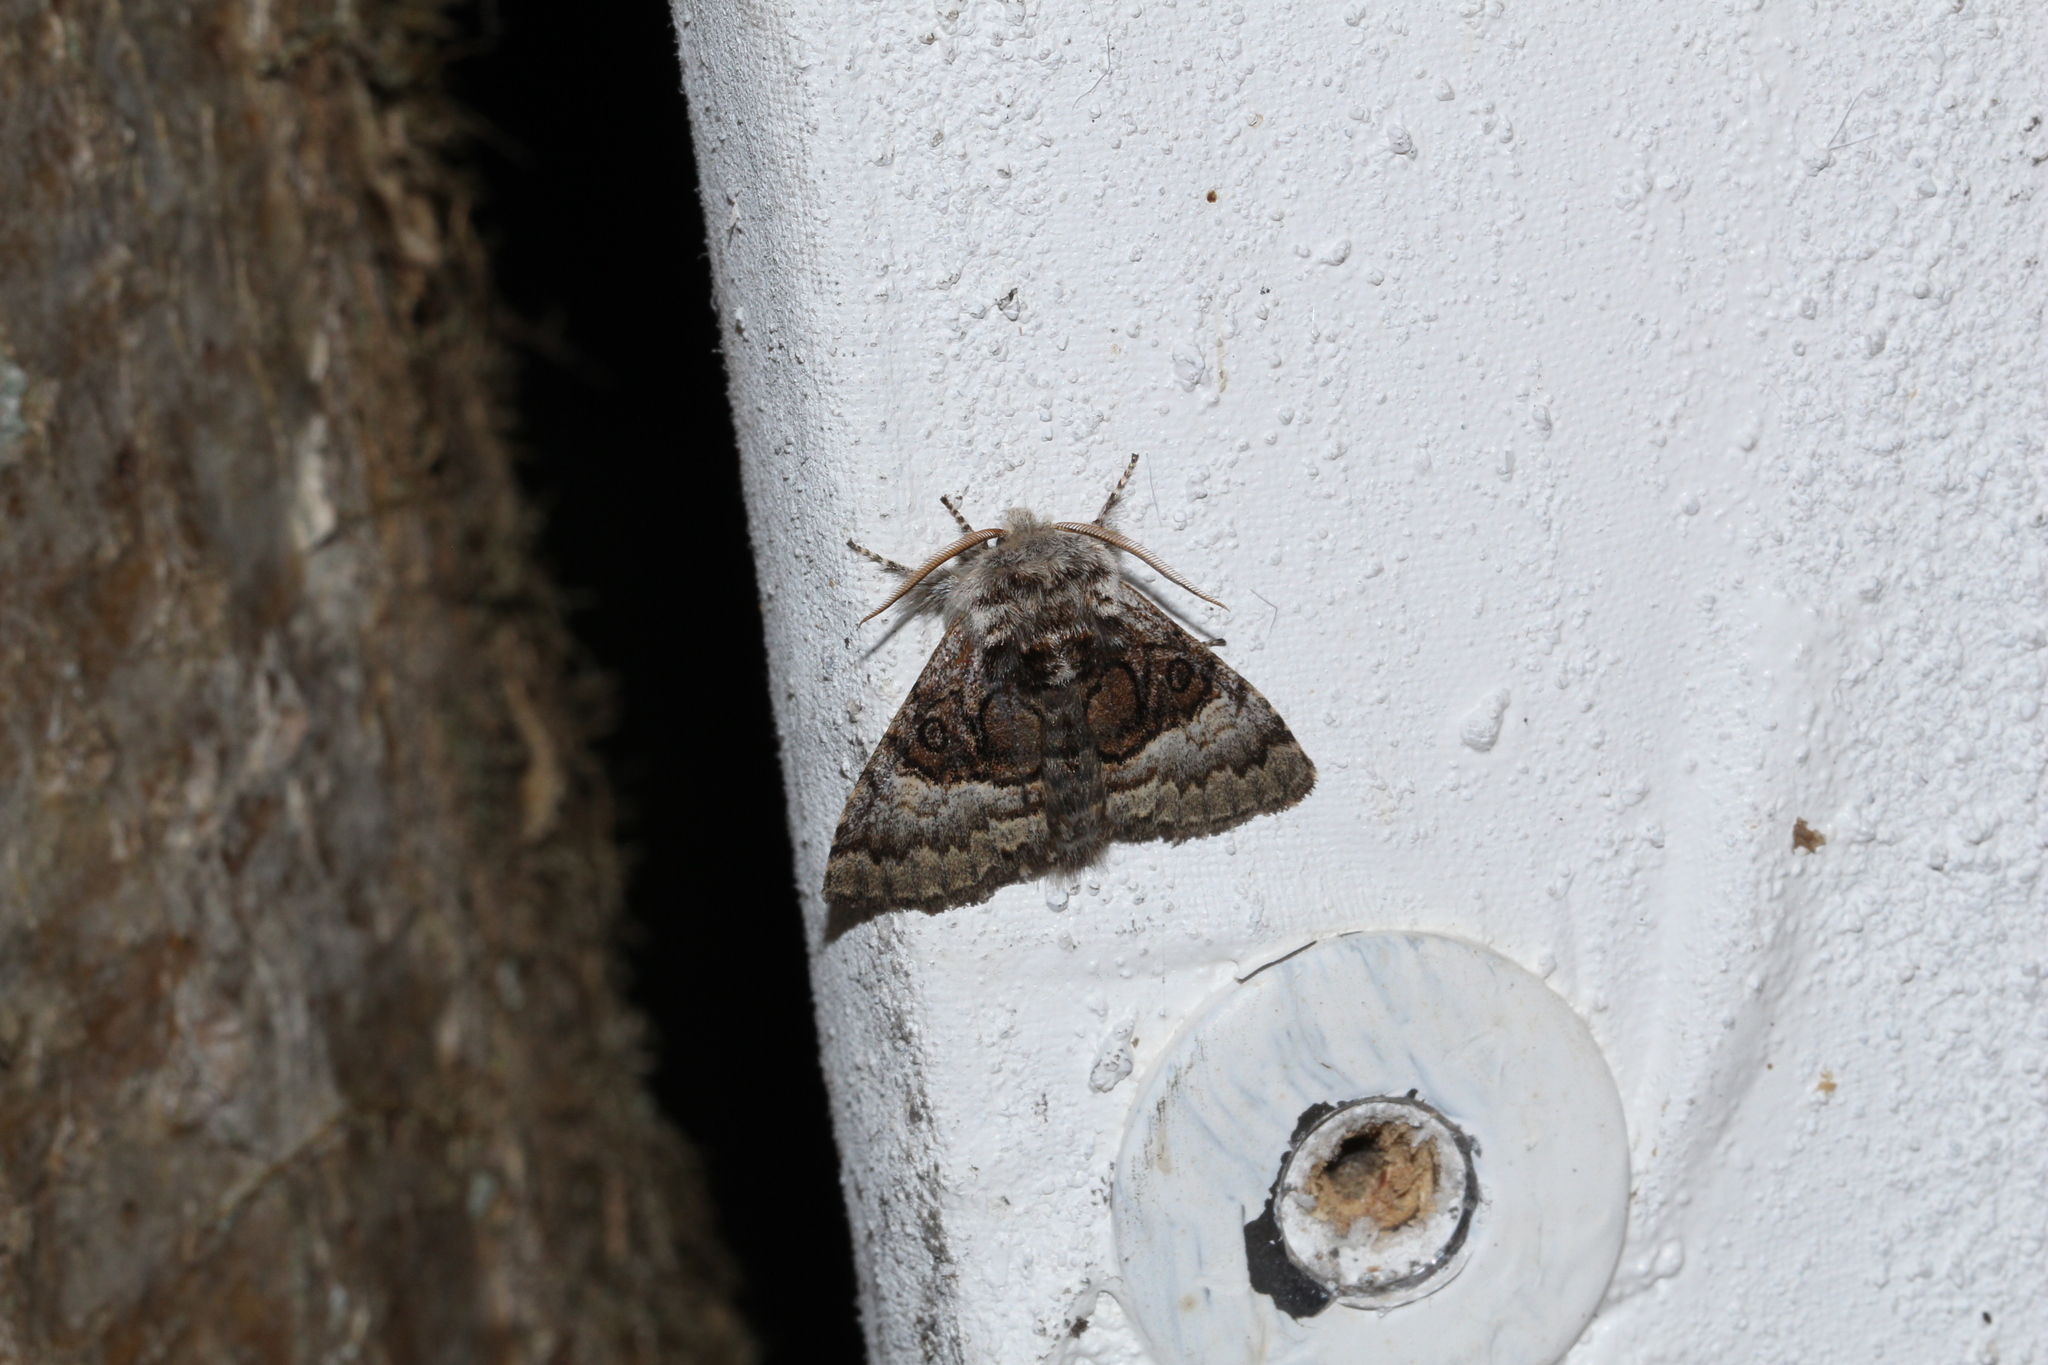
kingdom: Animalia
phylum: Arthropoda
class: Insecta
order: Lepidoptera
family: Noctuidae
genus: Colocasia
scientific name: Colocasia coryli
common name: Nut-tree tussock
